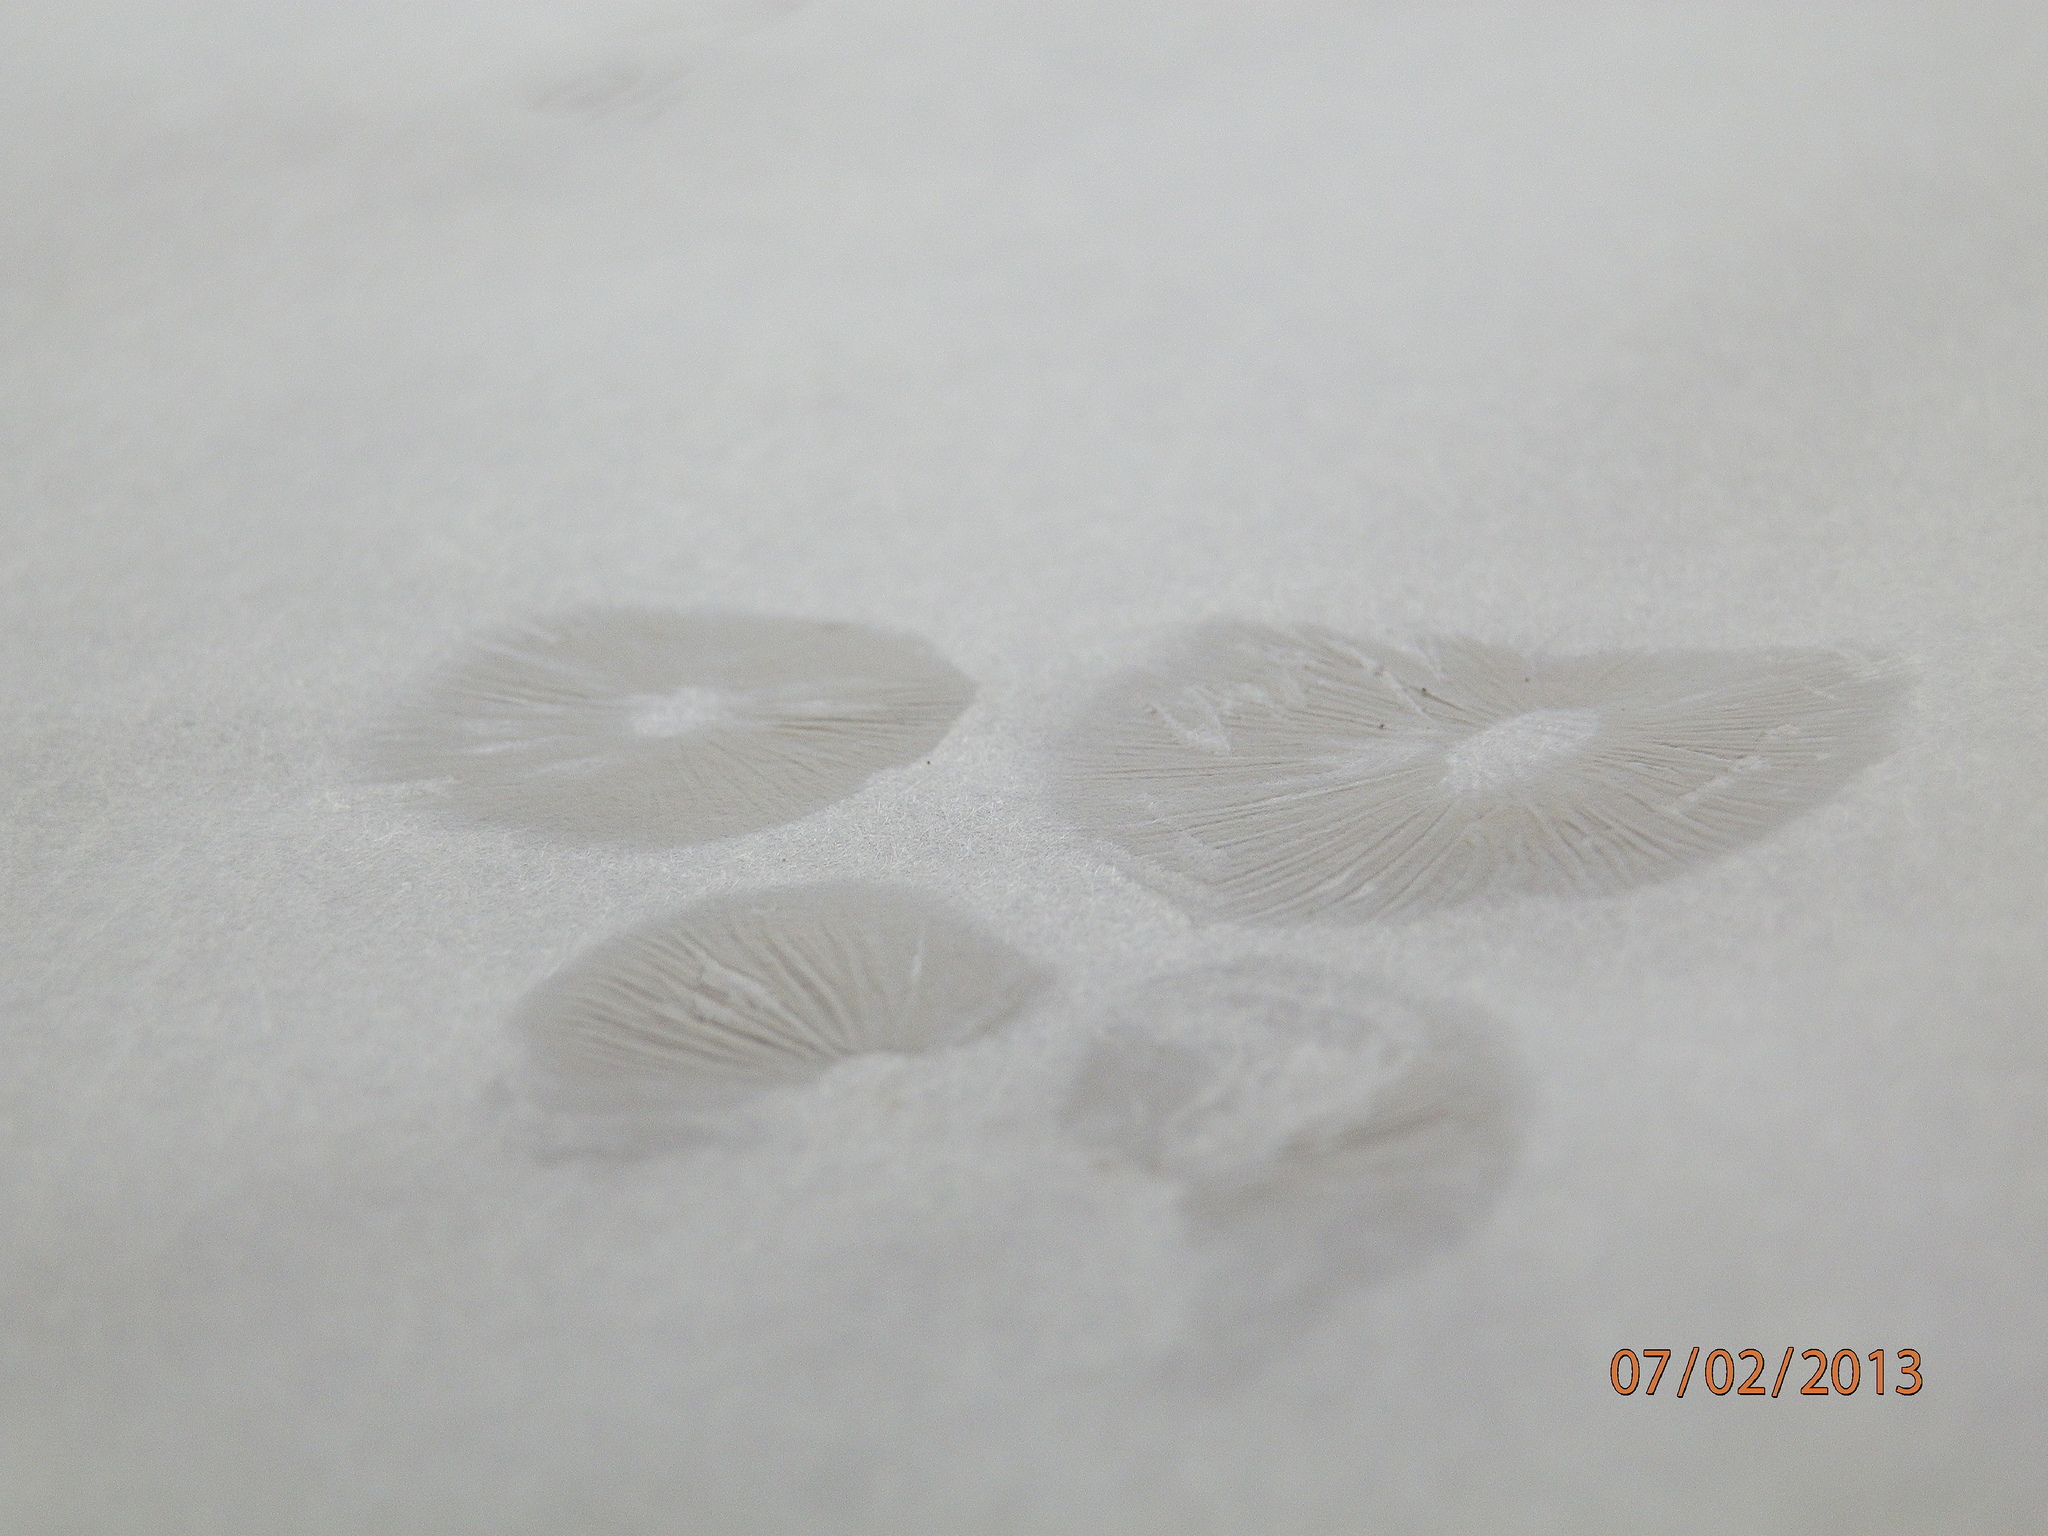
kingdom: Fungi
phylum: Basidiomycota
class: Agaricomycetes
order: Agaricales
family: Hygrophoraceae
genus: Hygrocybe
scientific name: Hygrocybe chlorophana
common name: Golden waxcap
